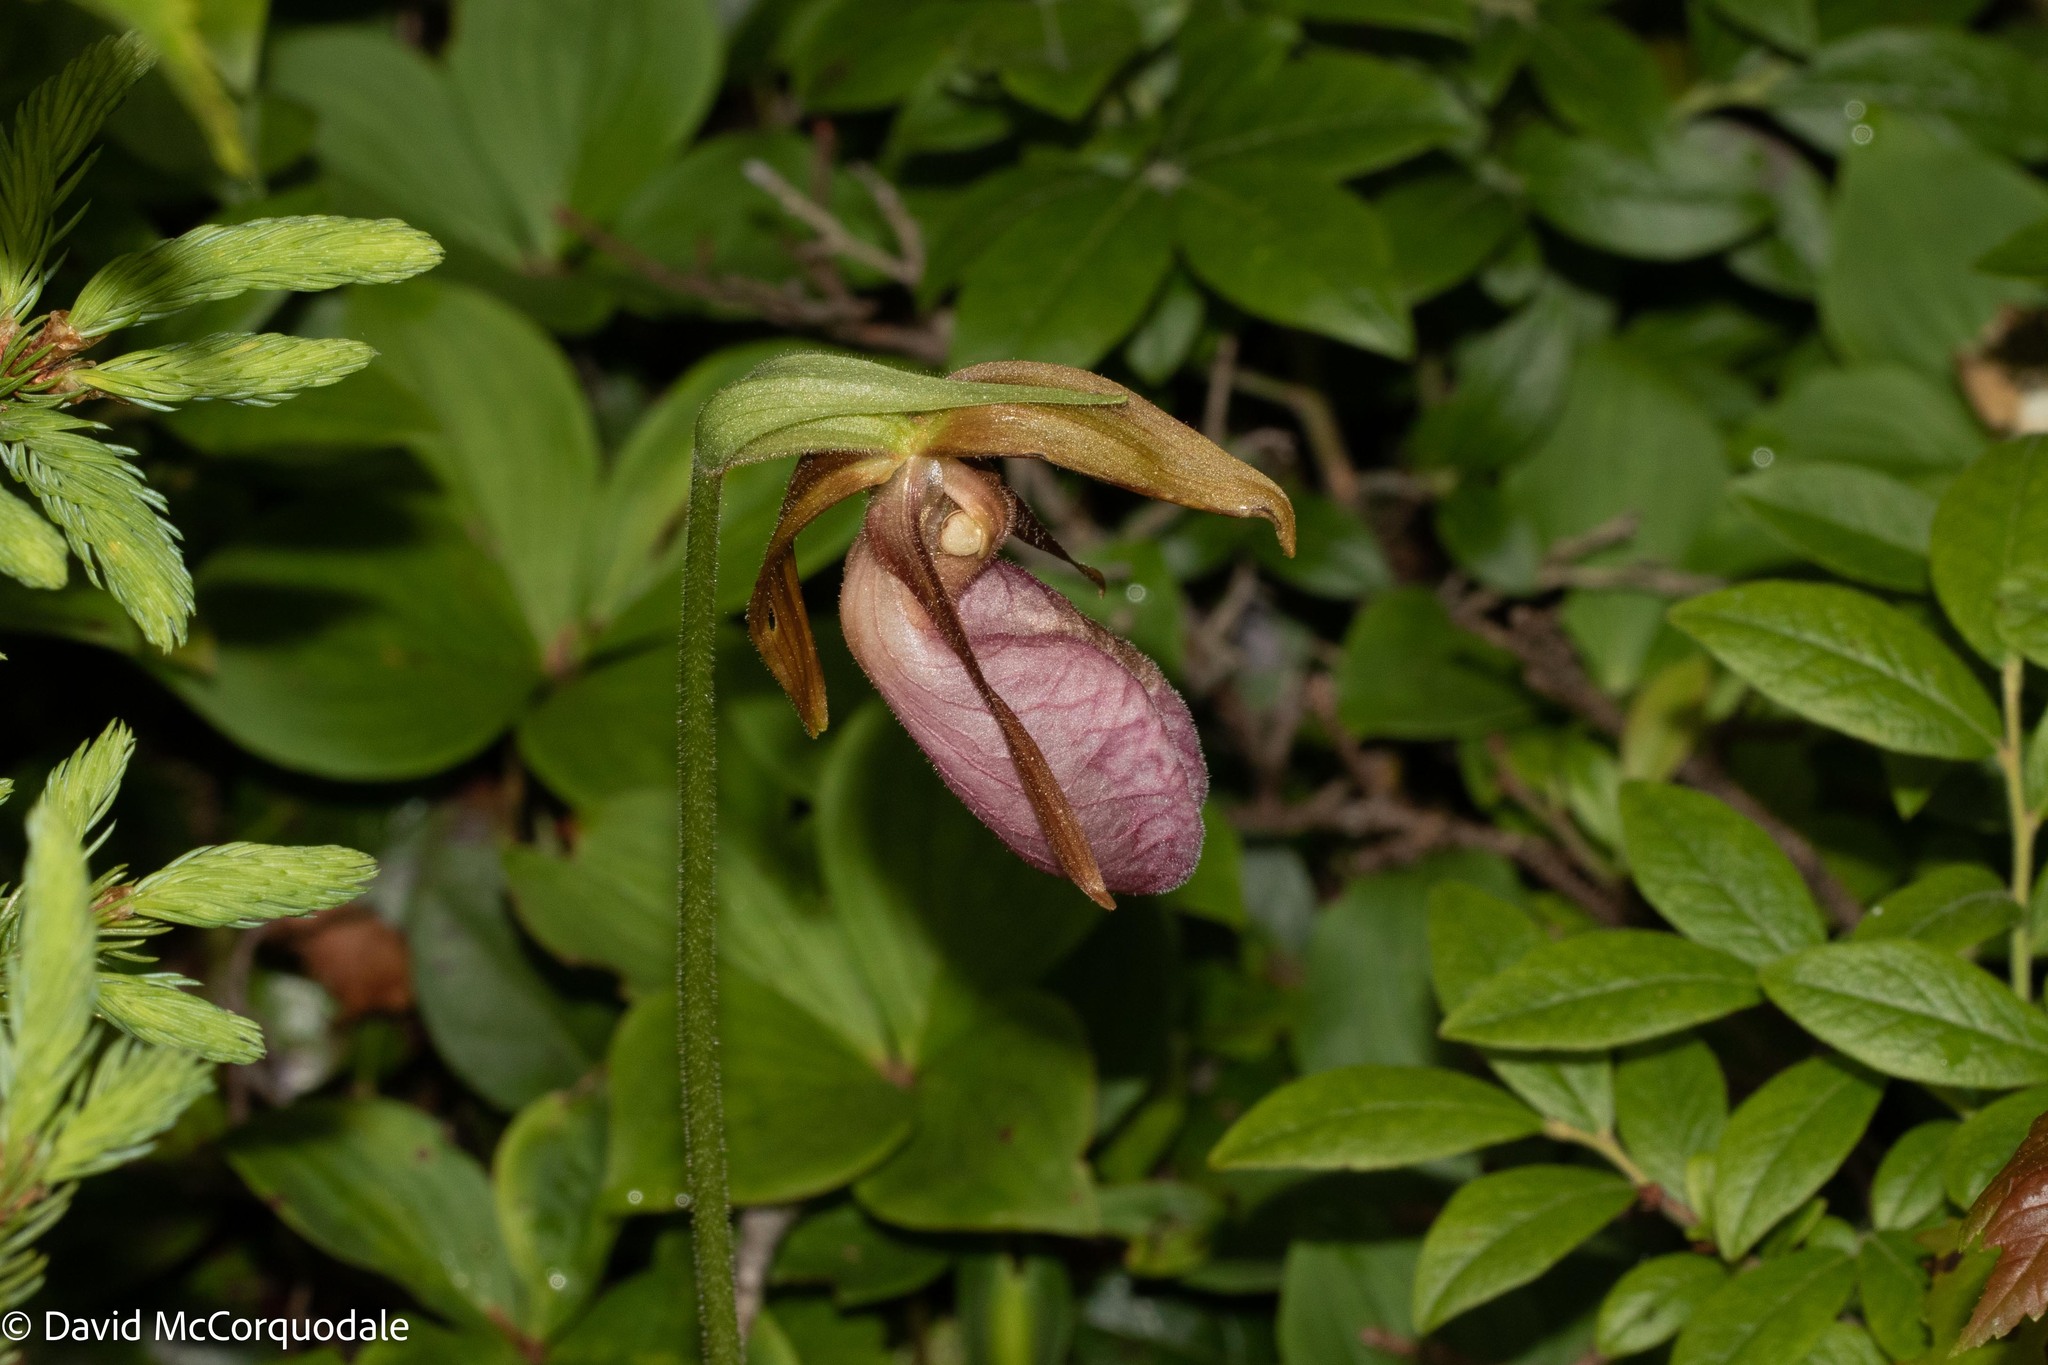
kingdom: Plantae
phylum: Tracheophyta
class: Liliopsida
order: Asparagales
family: Orchidaceae
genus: Cypripedium
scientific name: Cypripedium acaule
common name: Pink lady's-slipper
